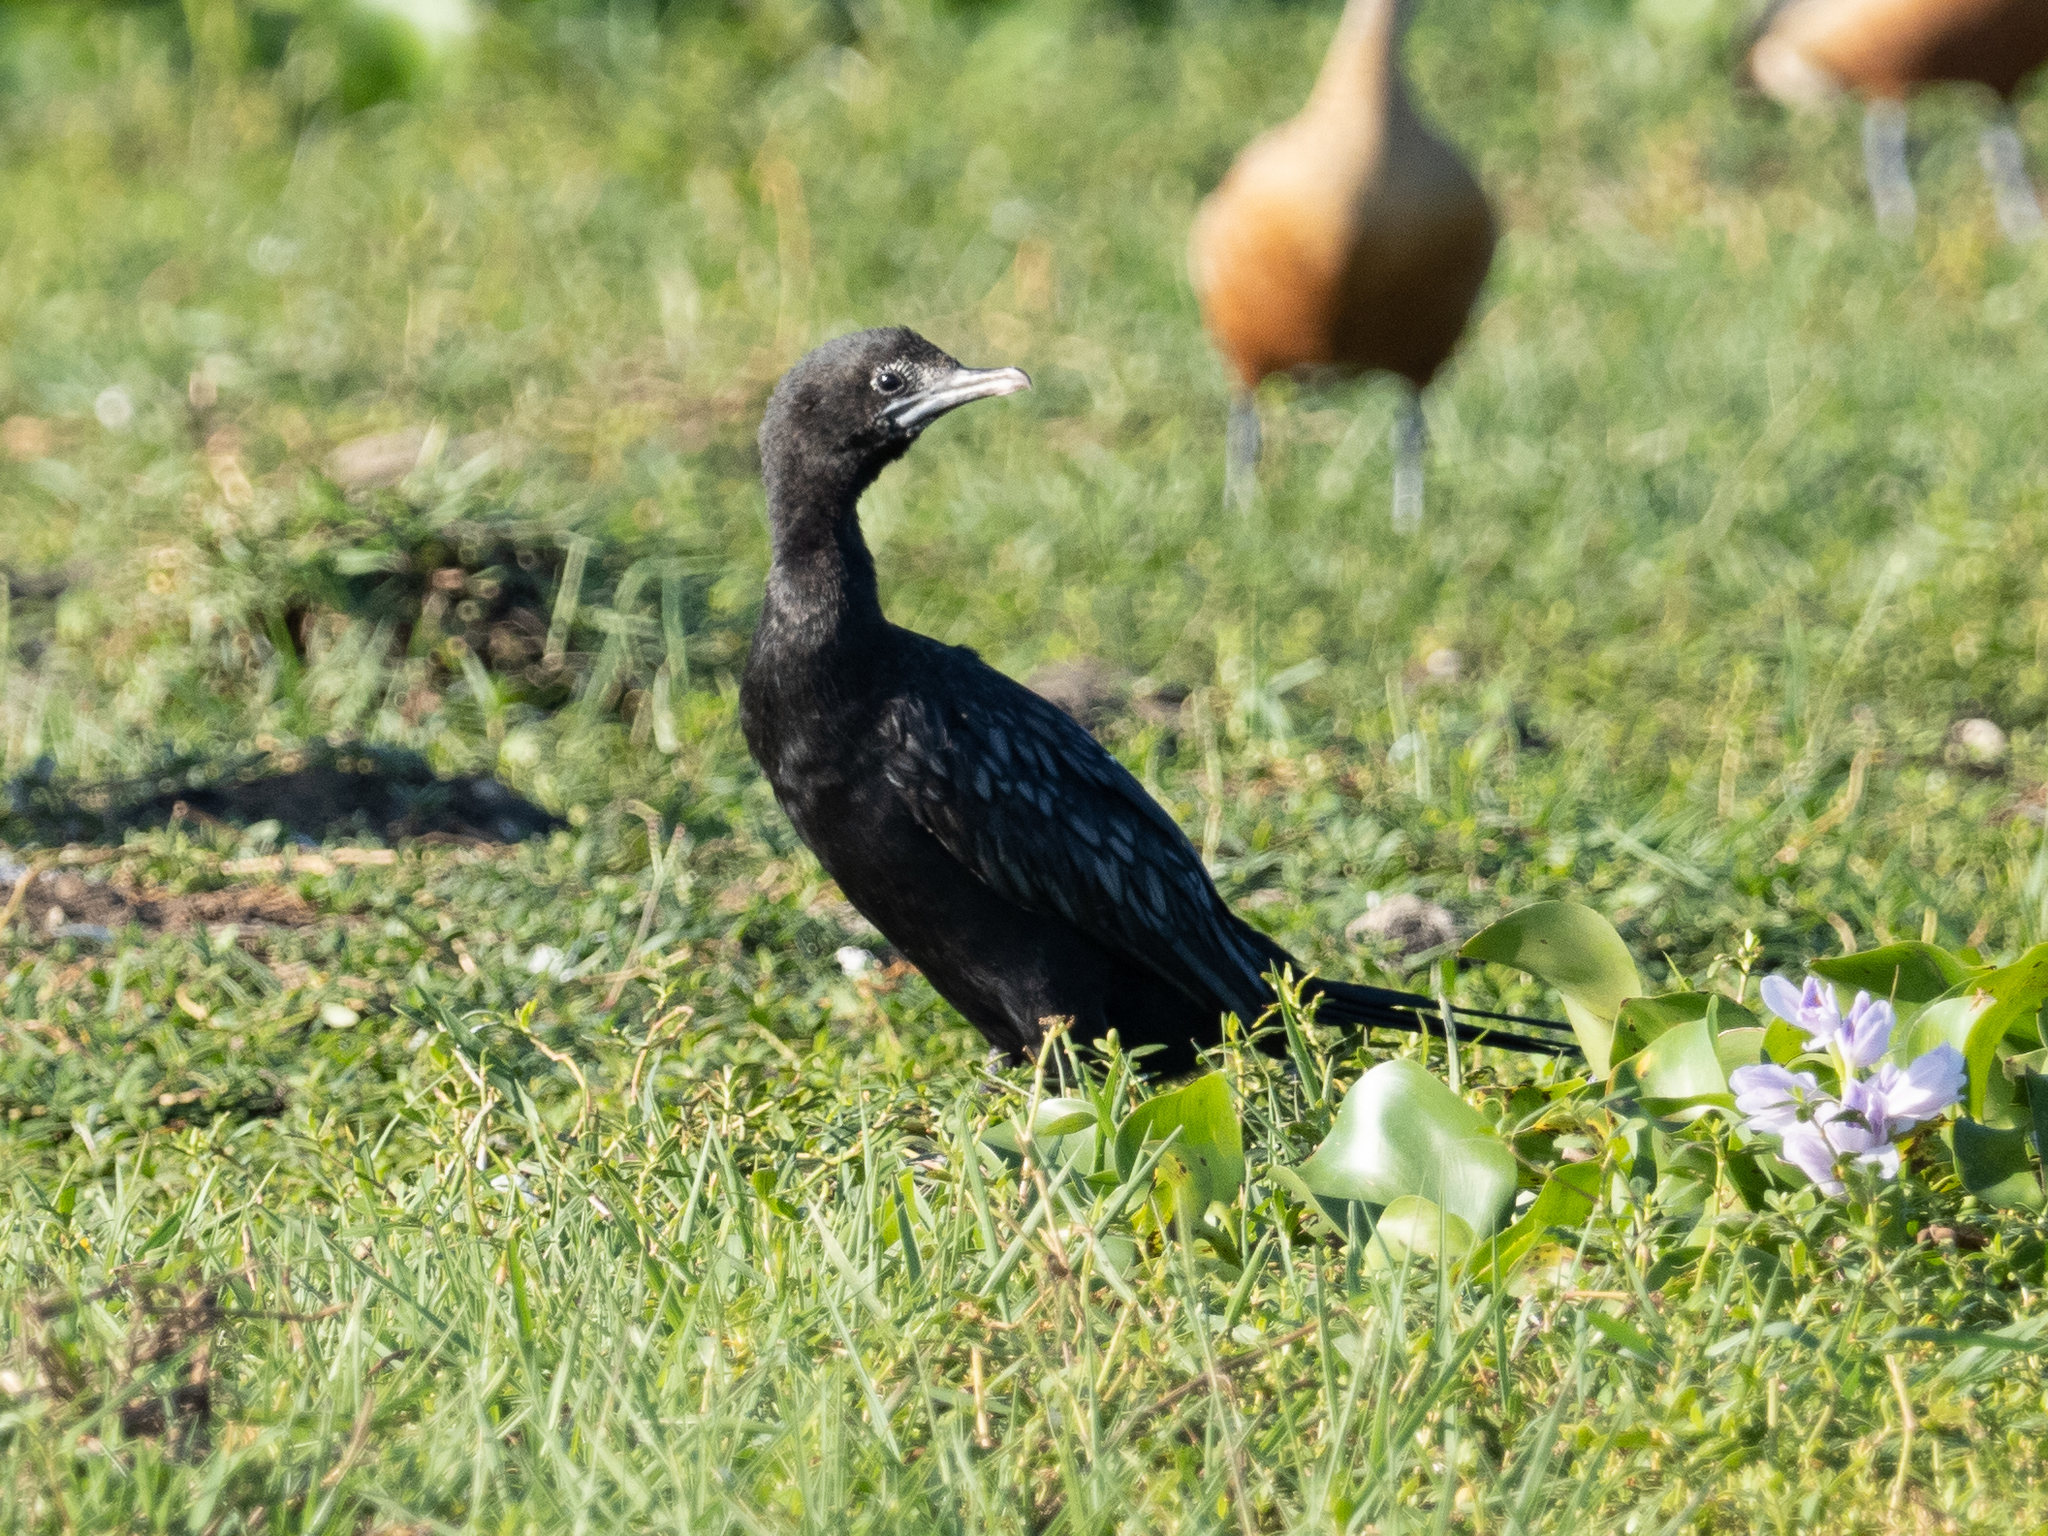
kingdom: Animalia
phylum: Chordata
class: Aves
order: Suliformes
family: Phalacrocoracidae
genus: Microcarbo
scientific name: Microcarbo niger
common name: Little cormorant
